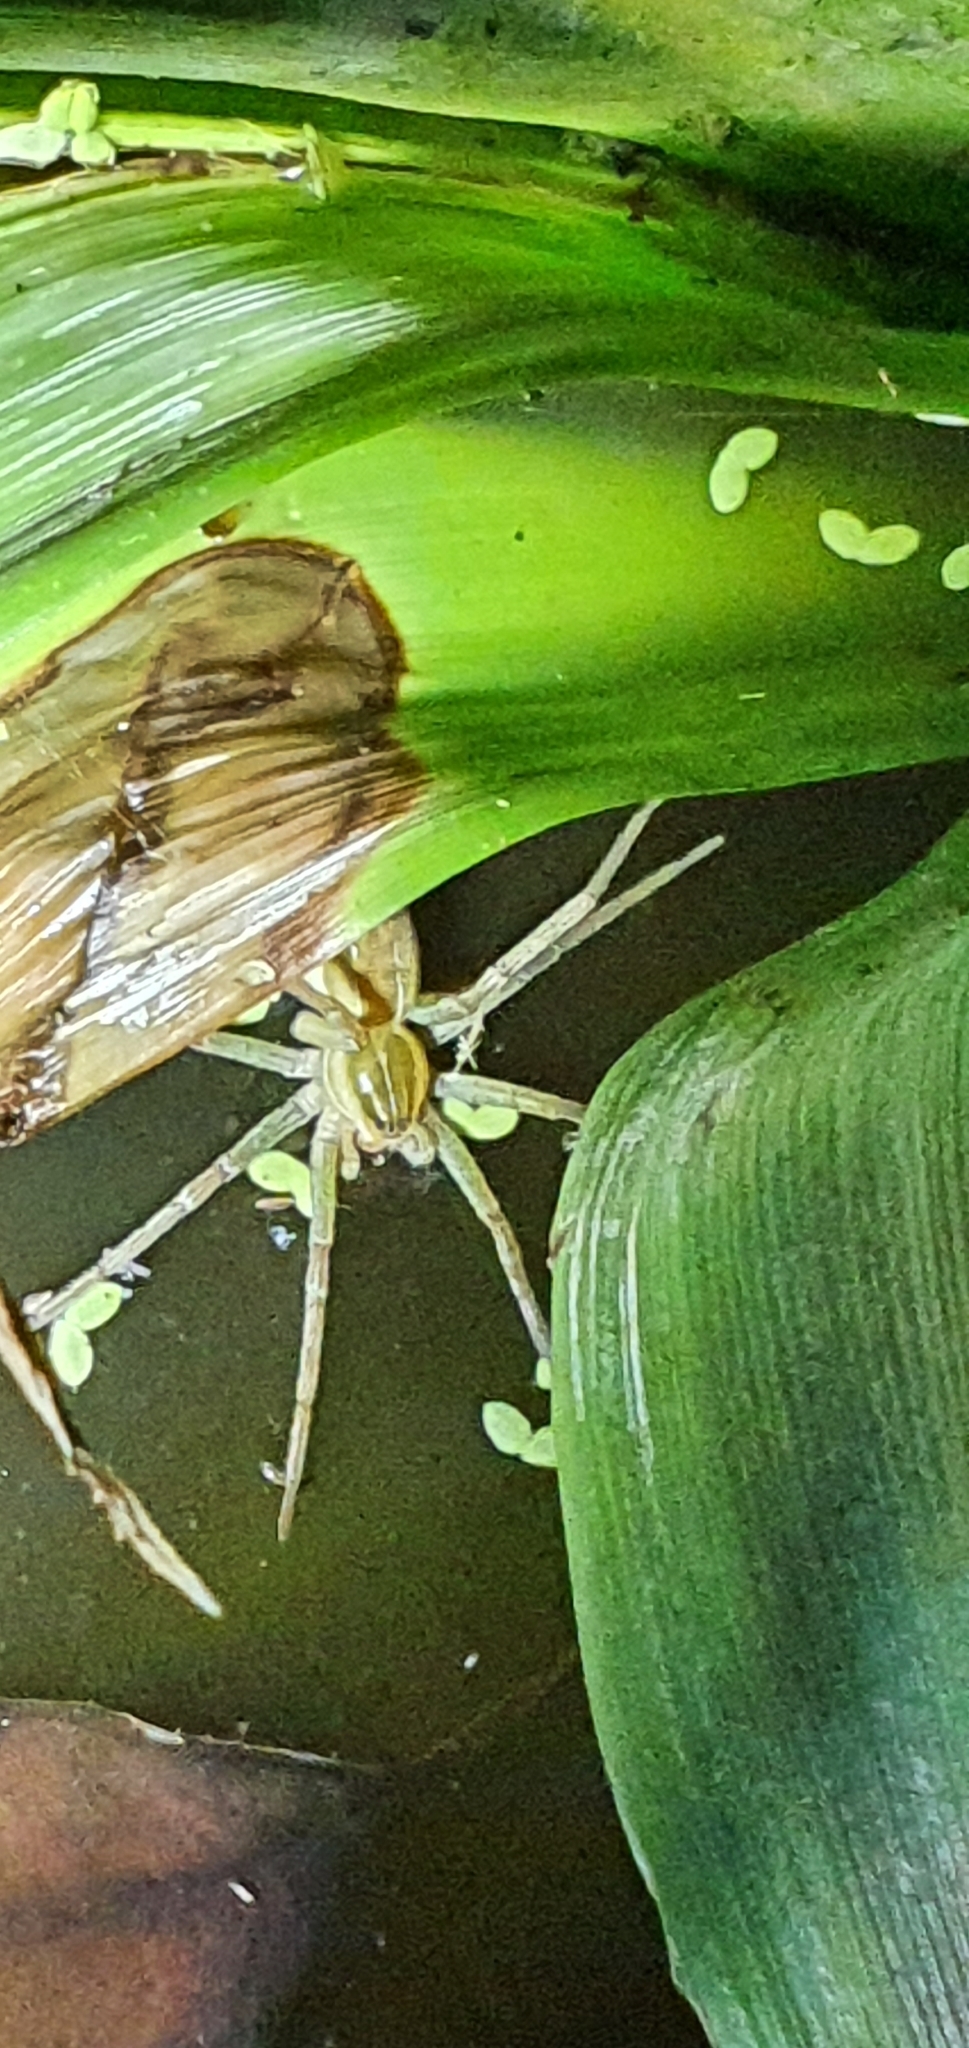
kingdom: Animalia
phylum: Arthropoda
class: Arachnida
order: Araneae
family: Pisauridae
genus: Dolomedes
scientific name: Dolomedes facetus
